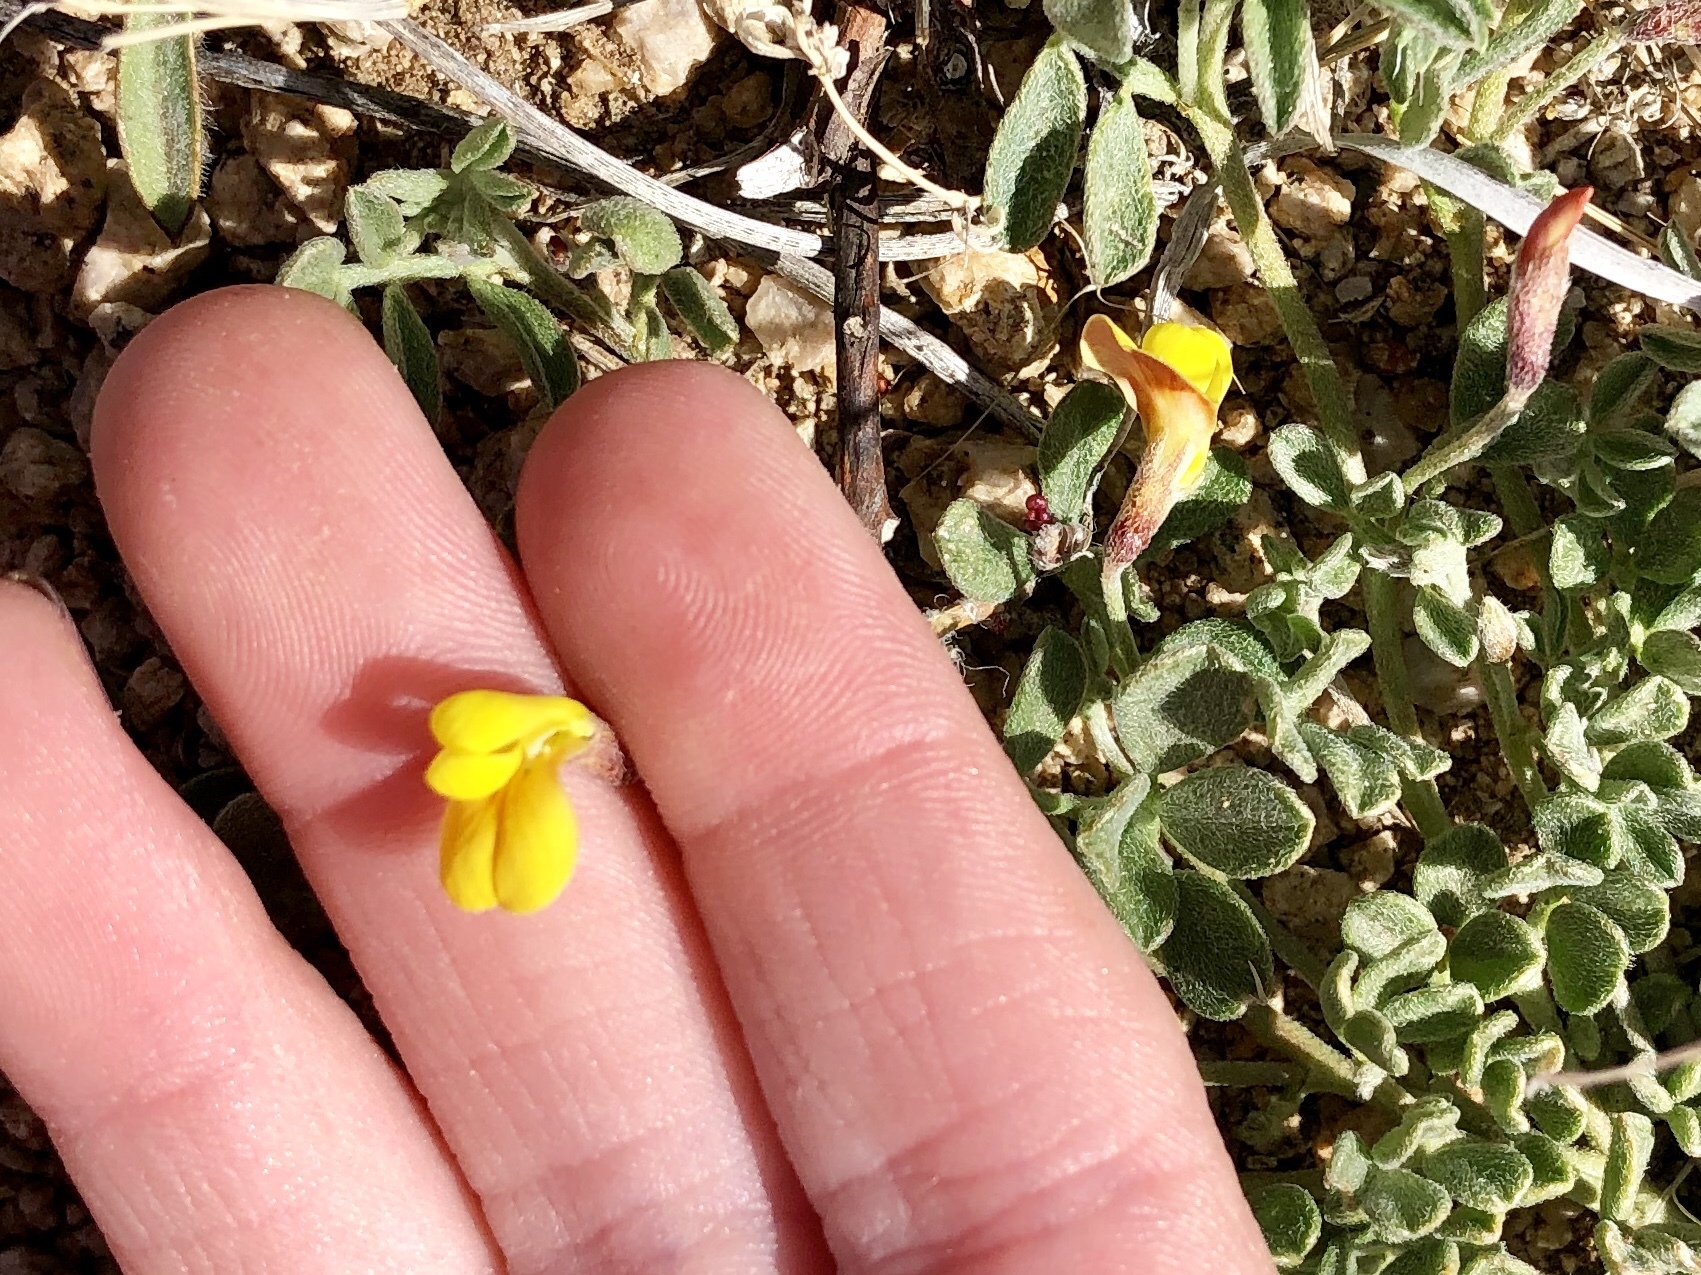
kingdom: Plantae
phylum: Tracheophyta
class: Magnoliopsida
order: Fabales
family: Fabaceae
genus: Acmispon
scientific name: Acmispon oroboides
